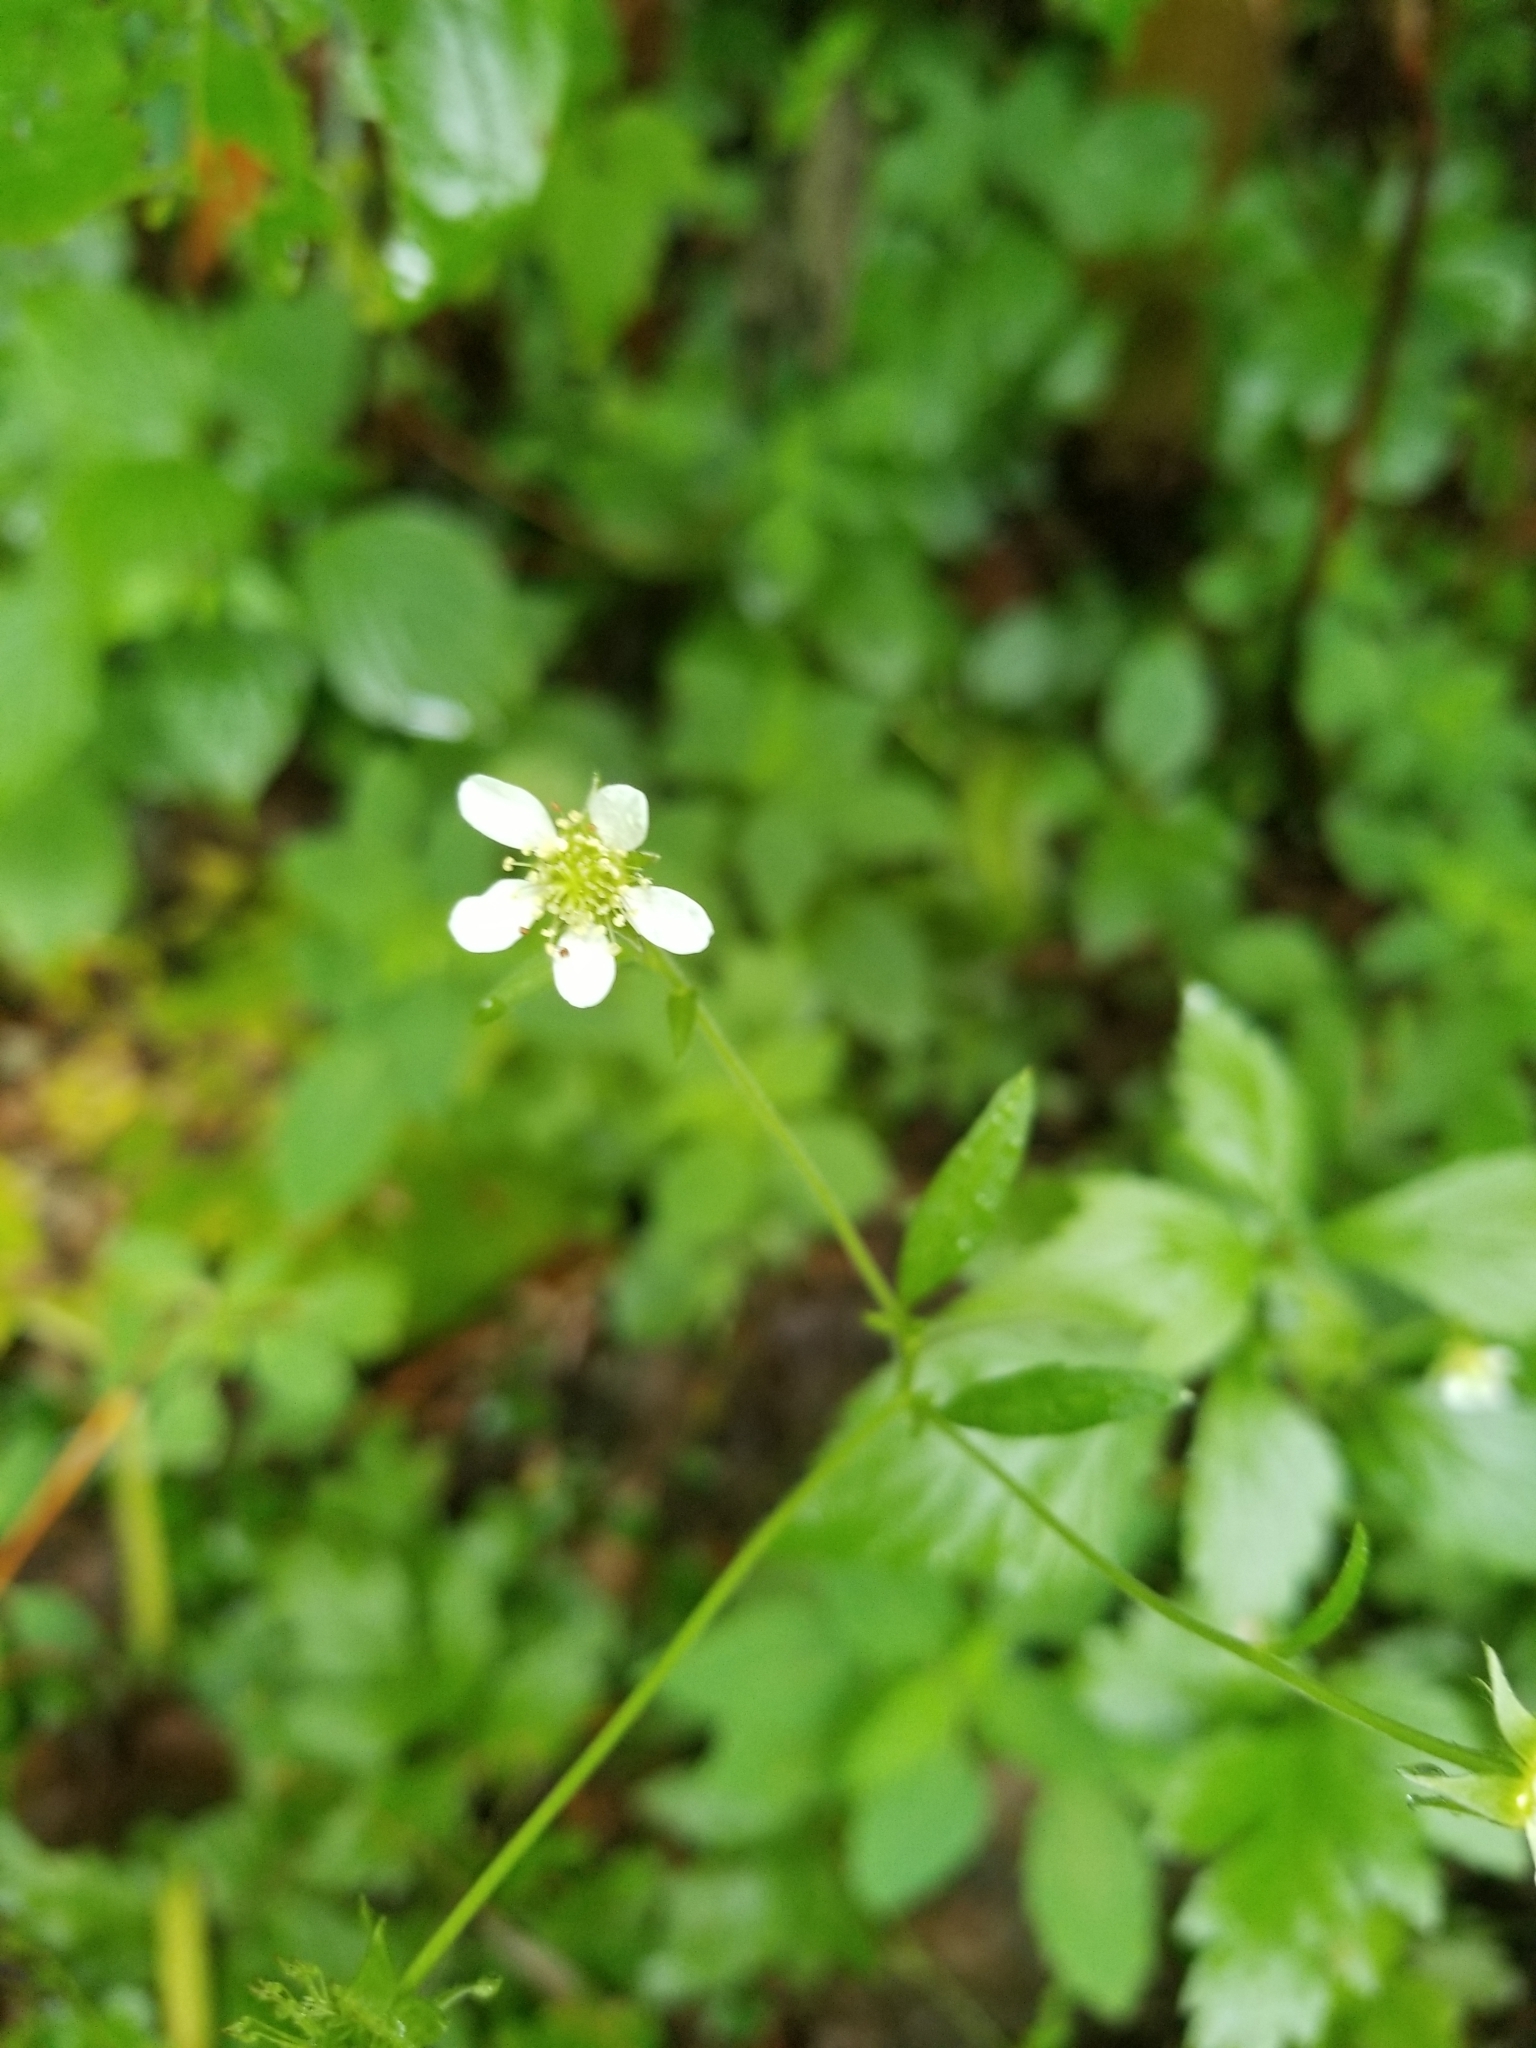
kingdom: Plantae
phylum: Tracheophyta
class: Magnoliopsida
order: Rosales
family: Rosaceae
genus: Geum
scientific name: Geum canadense
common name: White avens
